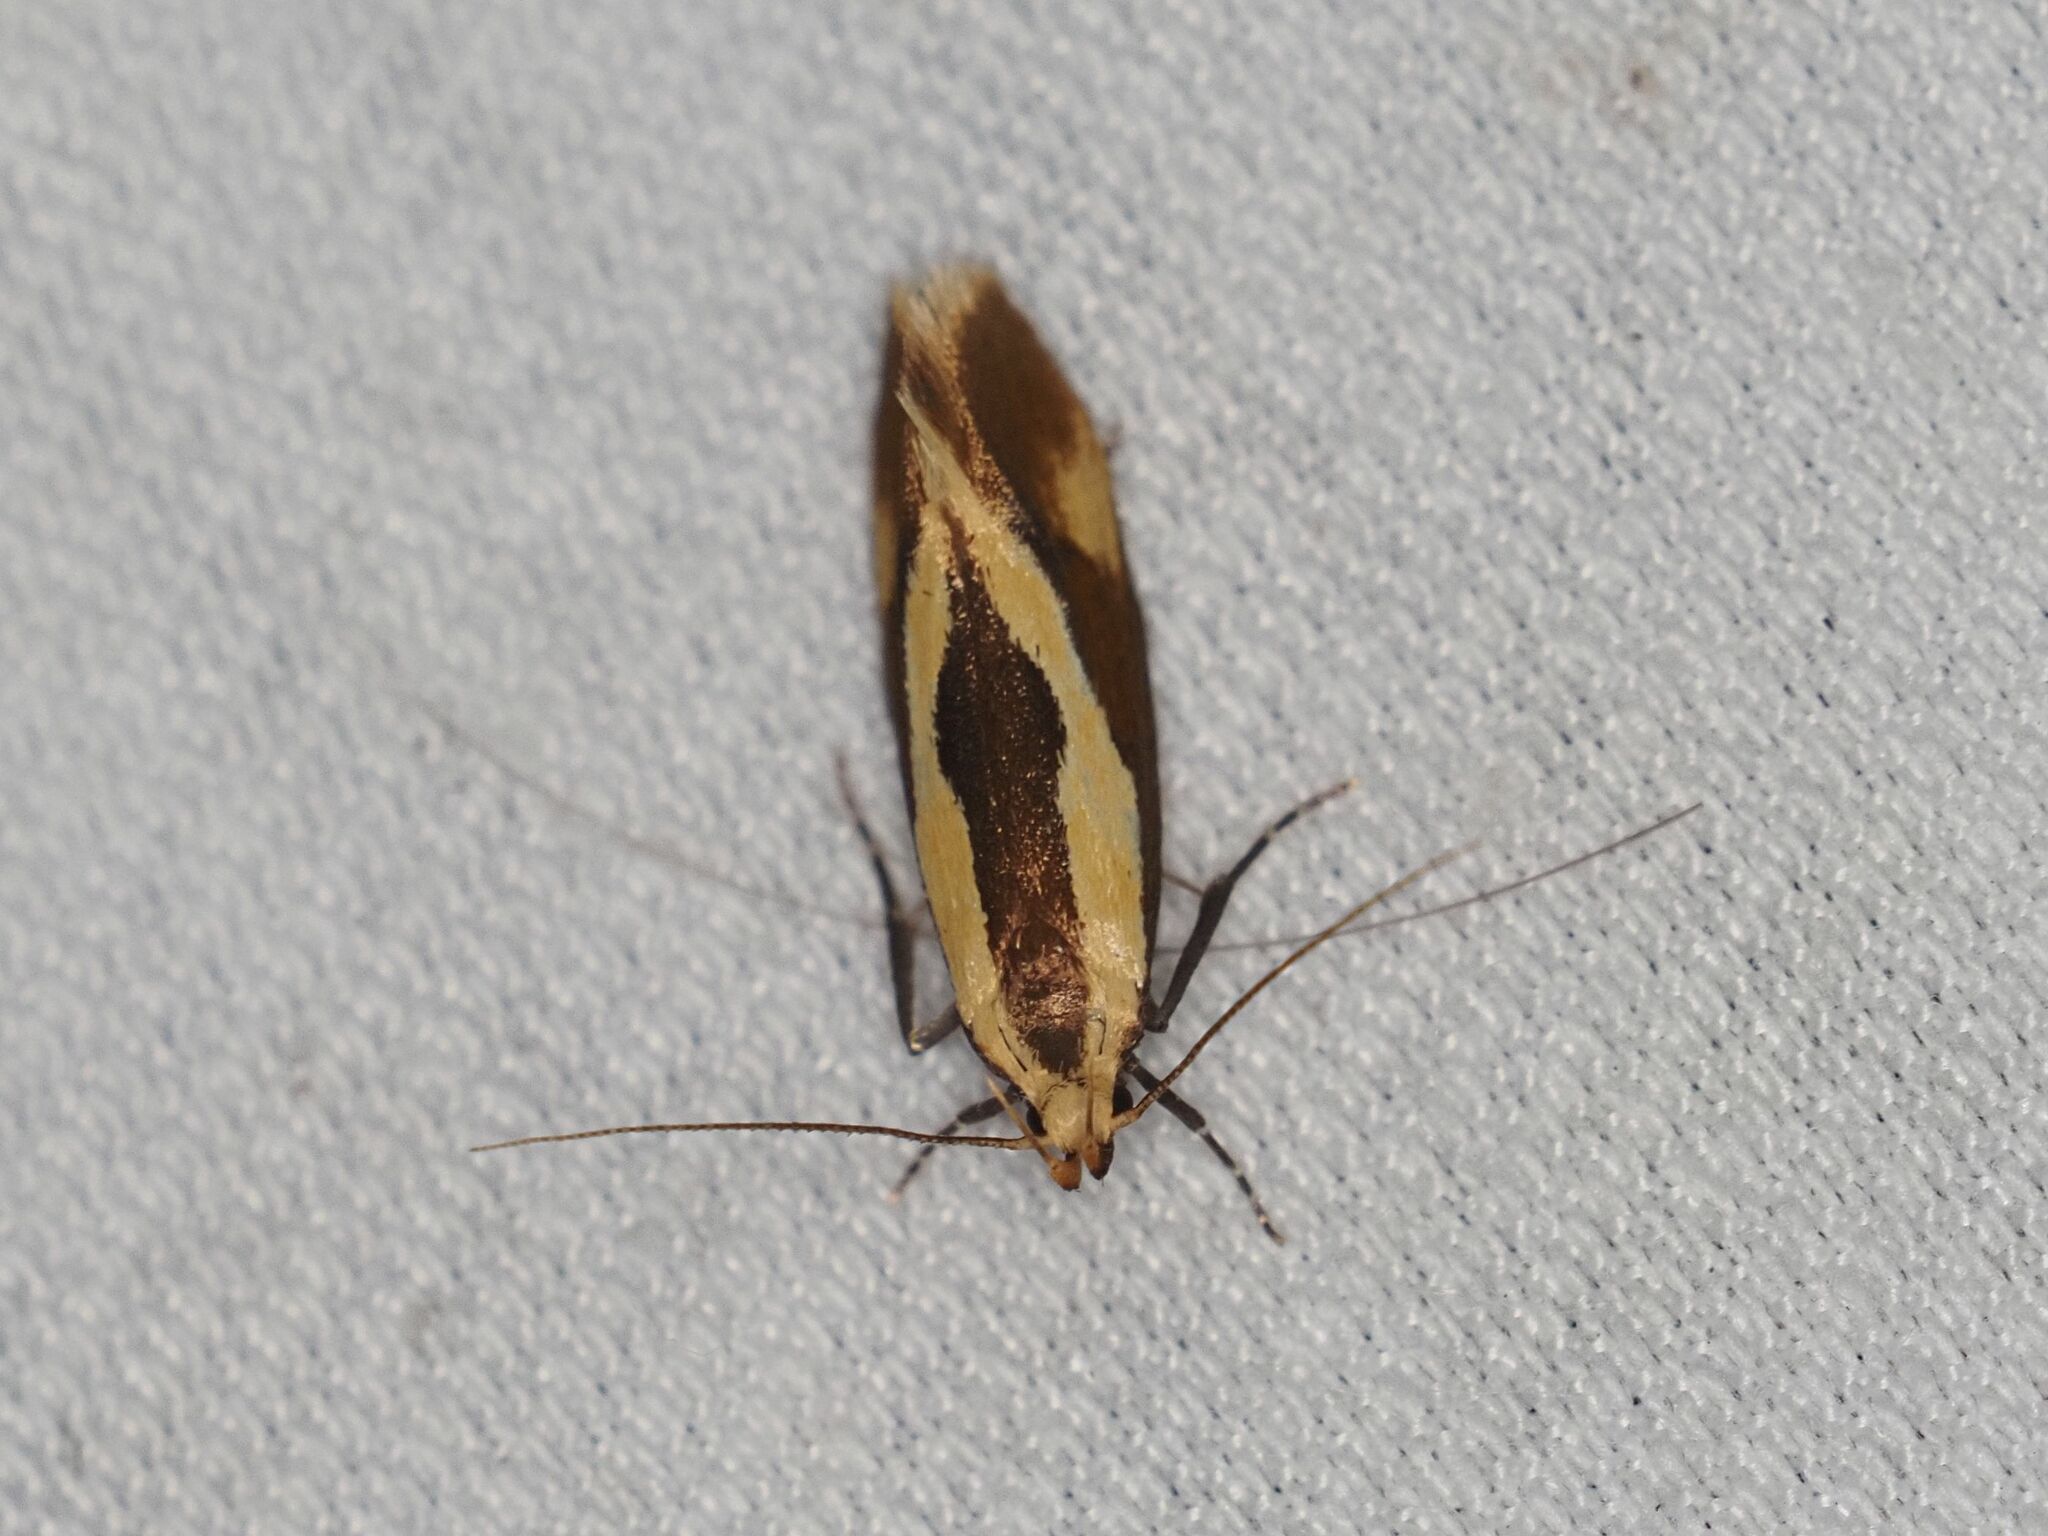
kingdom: Animalia
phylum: Arthropoda
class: Insecta
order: Lepidoptera
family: Oecophoridae
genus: Harpella
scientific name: Harpella forficella
